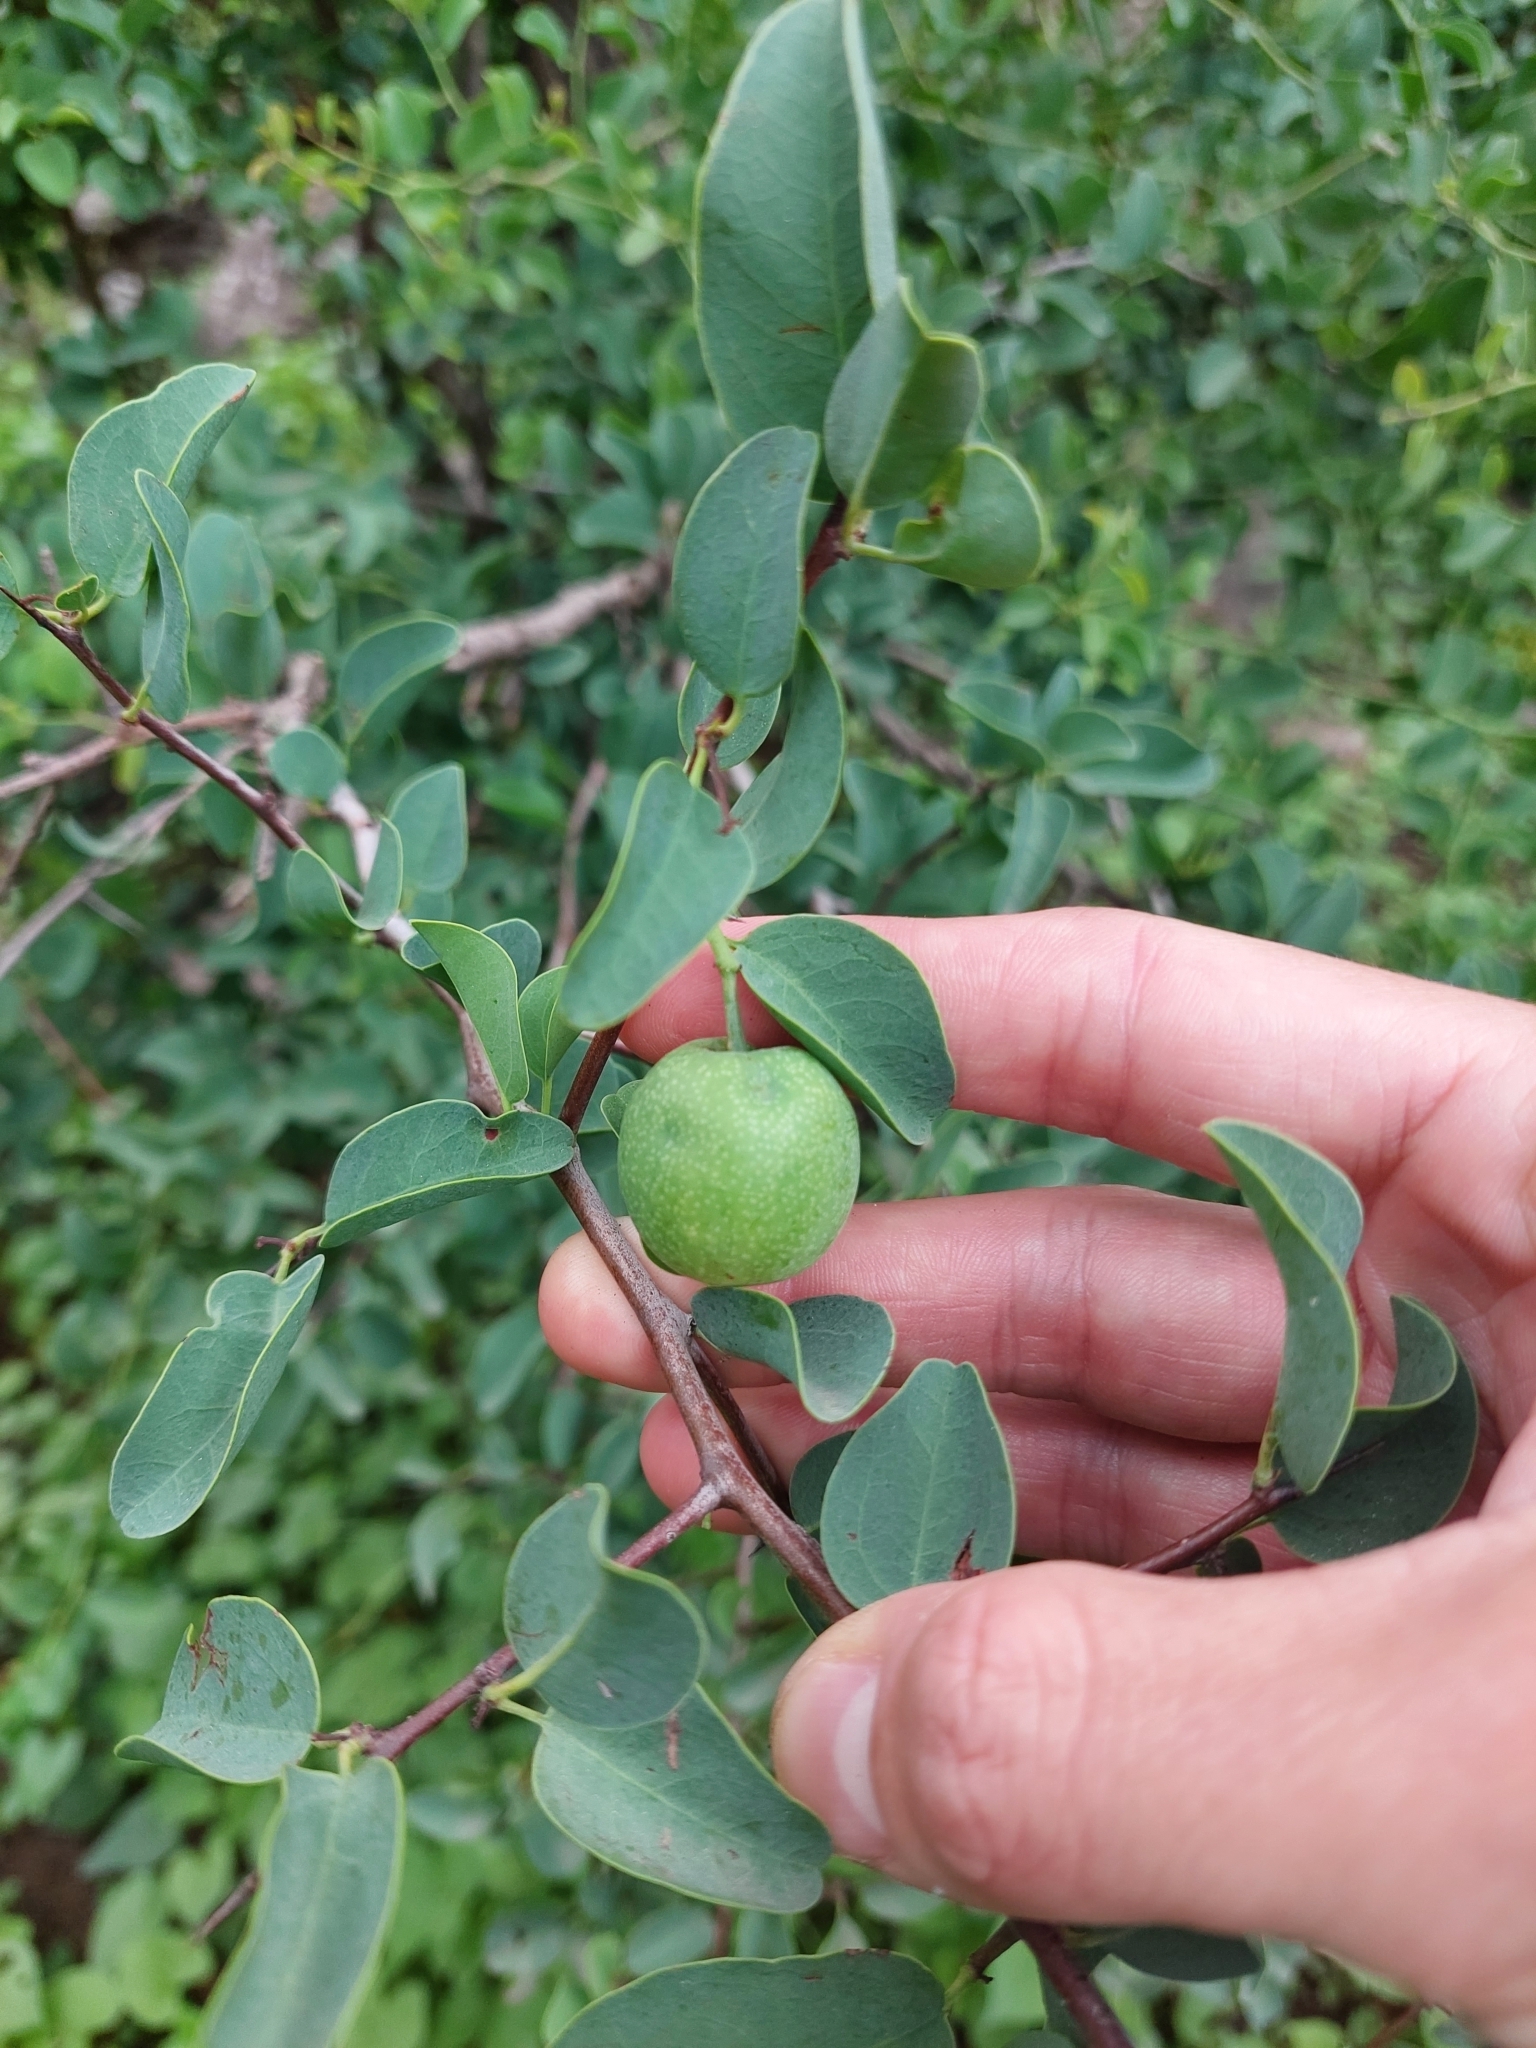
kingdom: Plantae
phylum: Tracheophyta
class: Magnoliopsida
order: Santalales
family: Ximeniaceae
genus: Ximenia
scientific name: Ximenia americana
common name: Tallowwood
